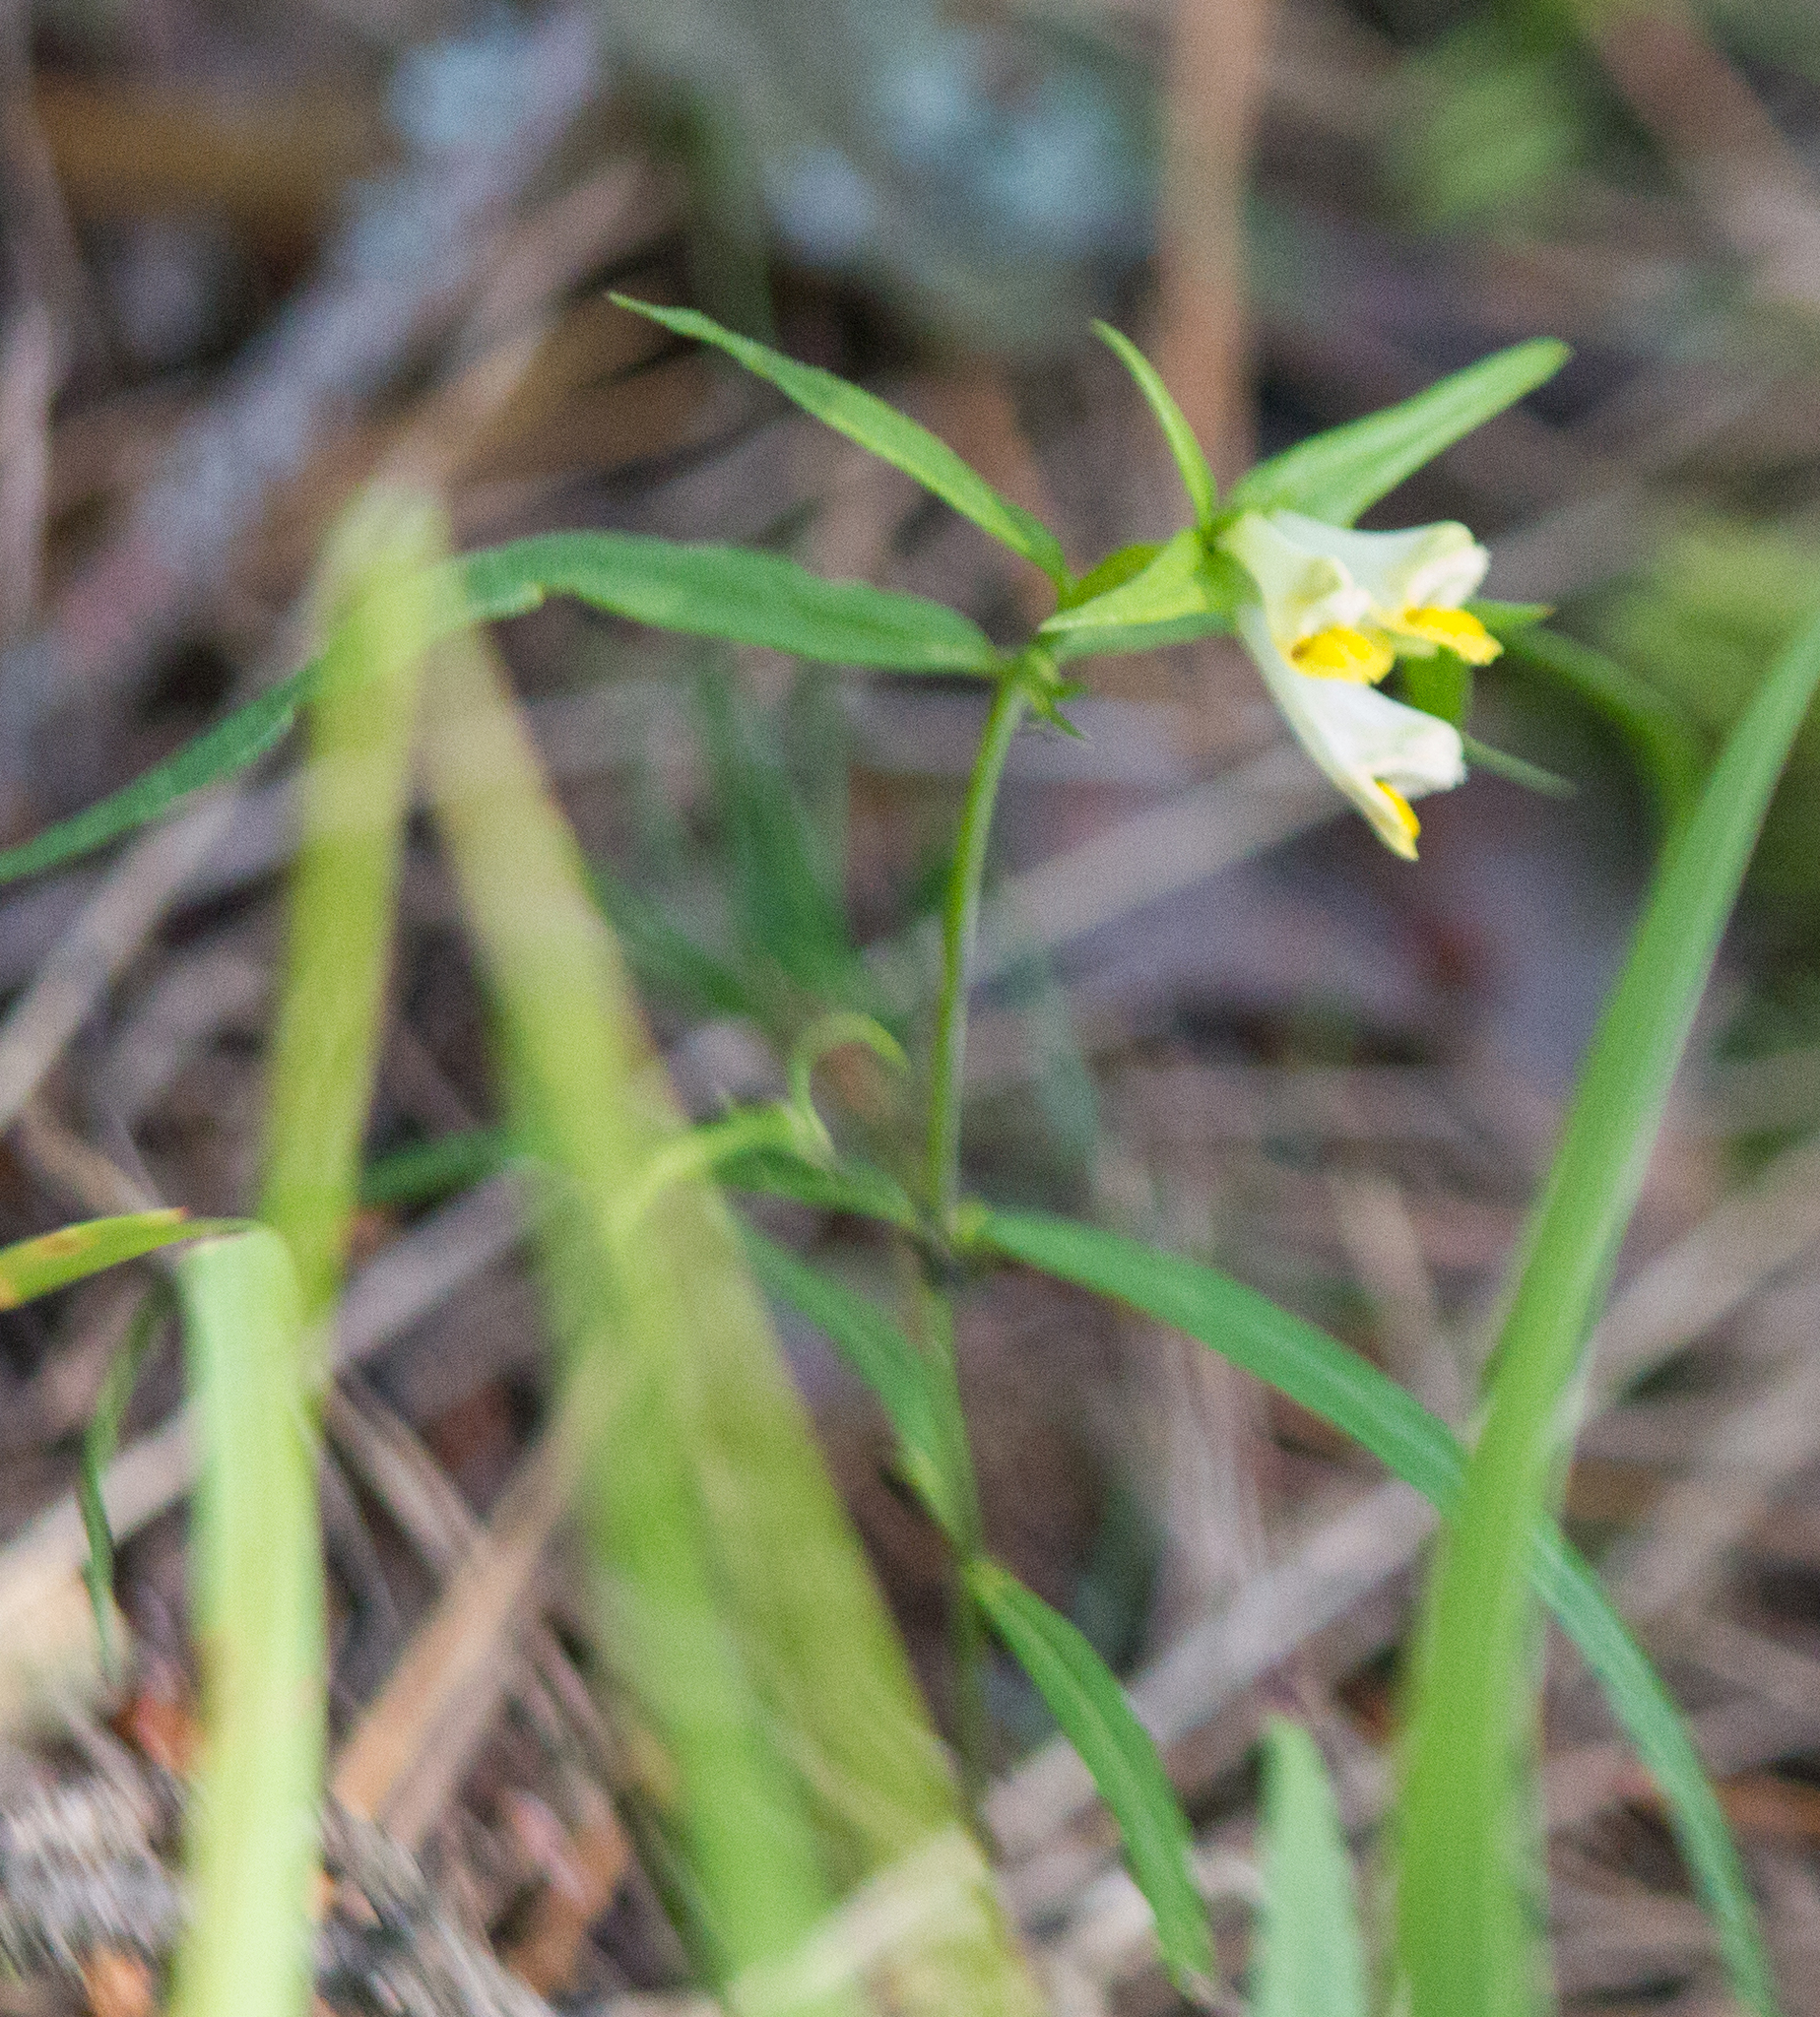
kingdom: Plantae
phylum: Tracheophyta
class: Magnoliopsida
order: Lamiales
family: Orobanchaceae
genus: Melampyrum
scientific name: Melampyrum pratense
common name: Common cow-wheat
